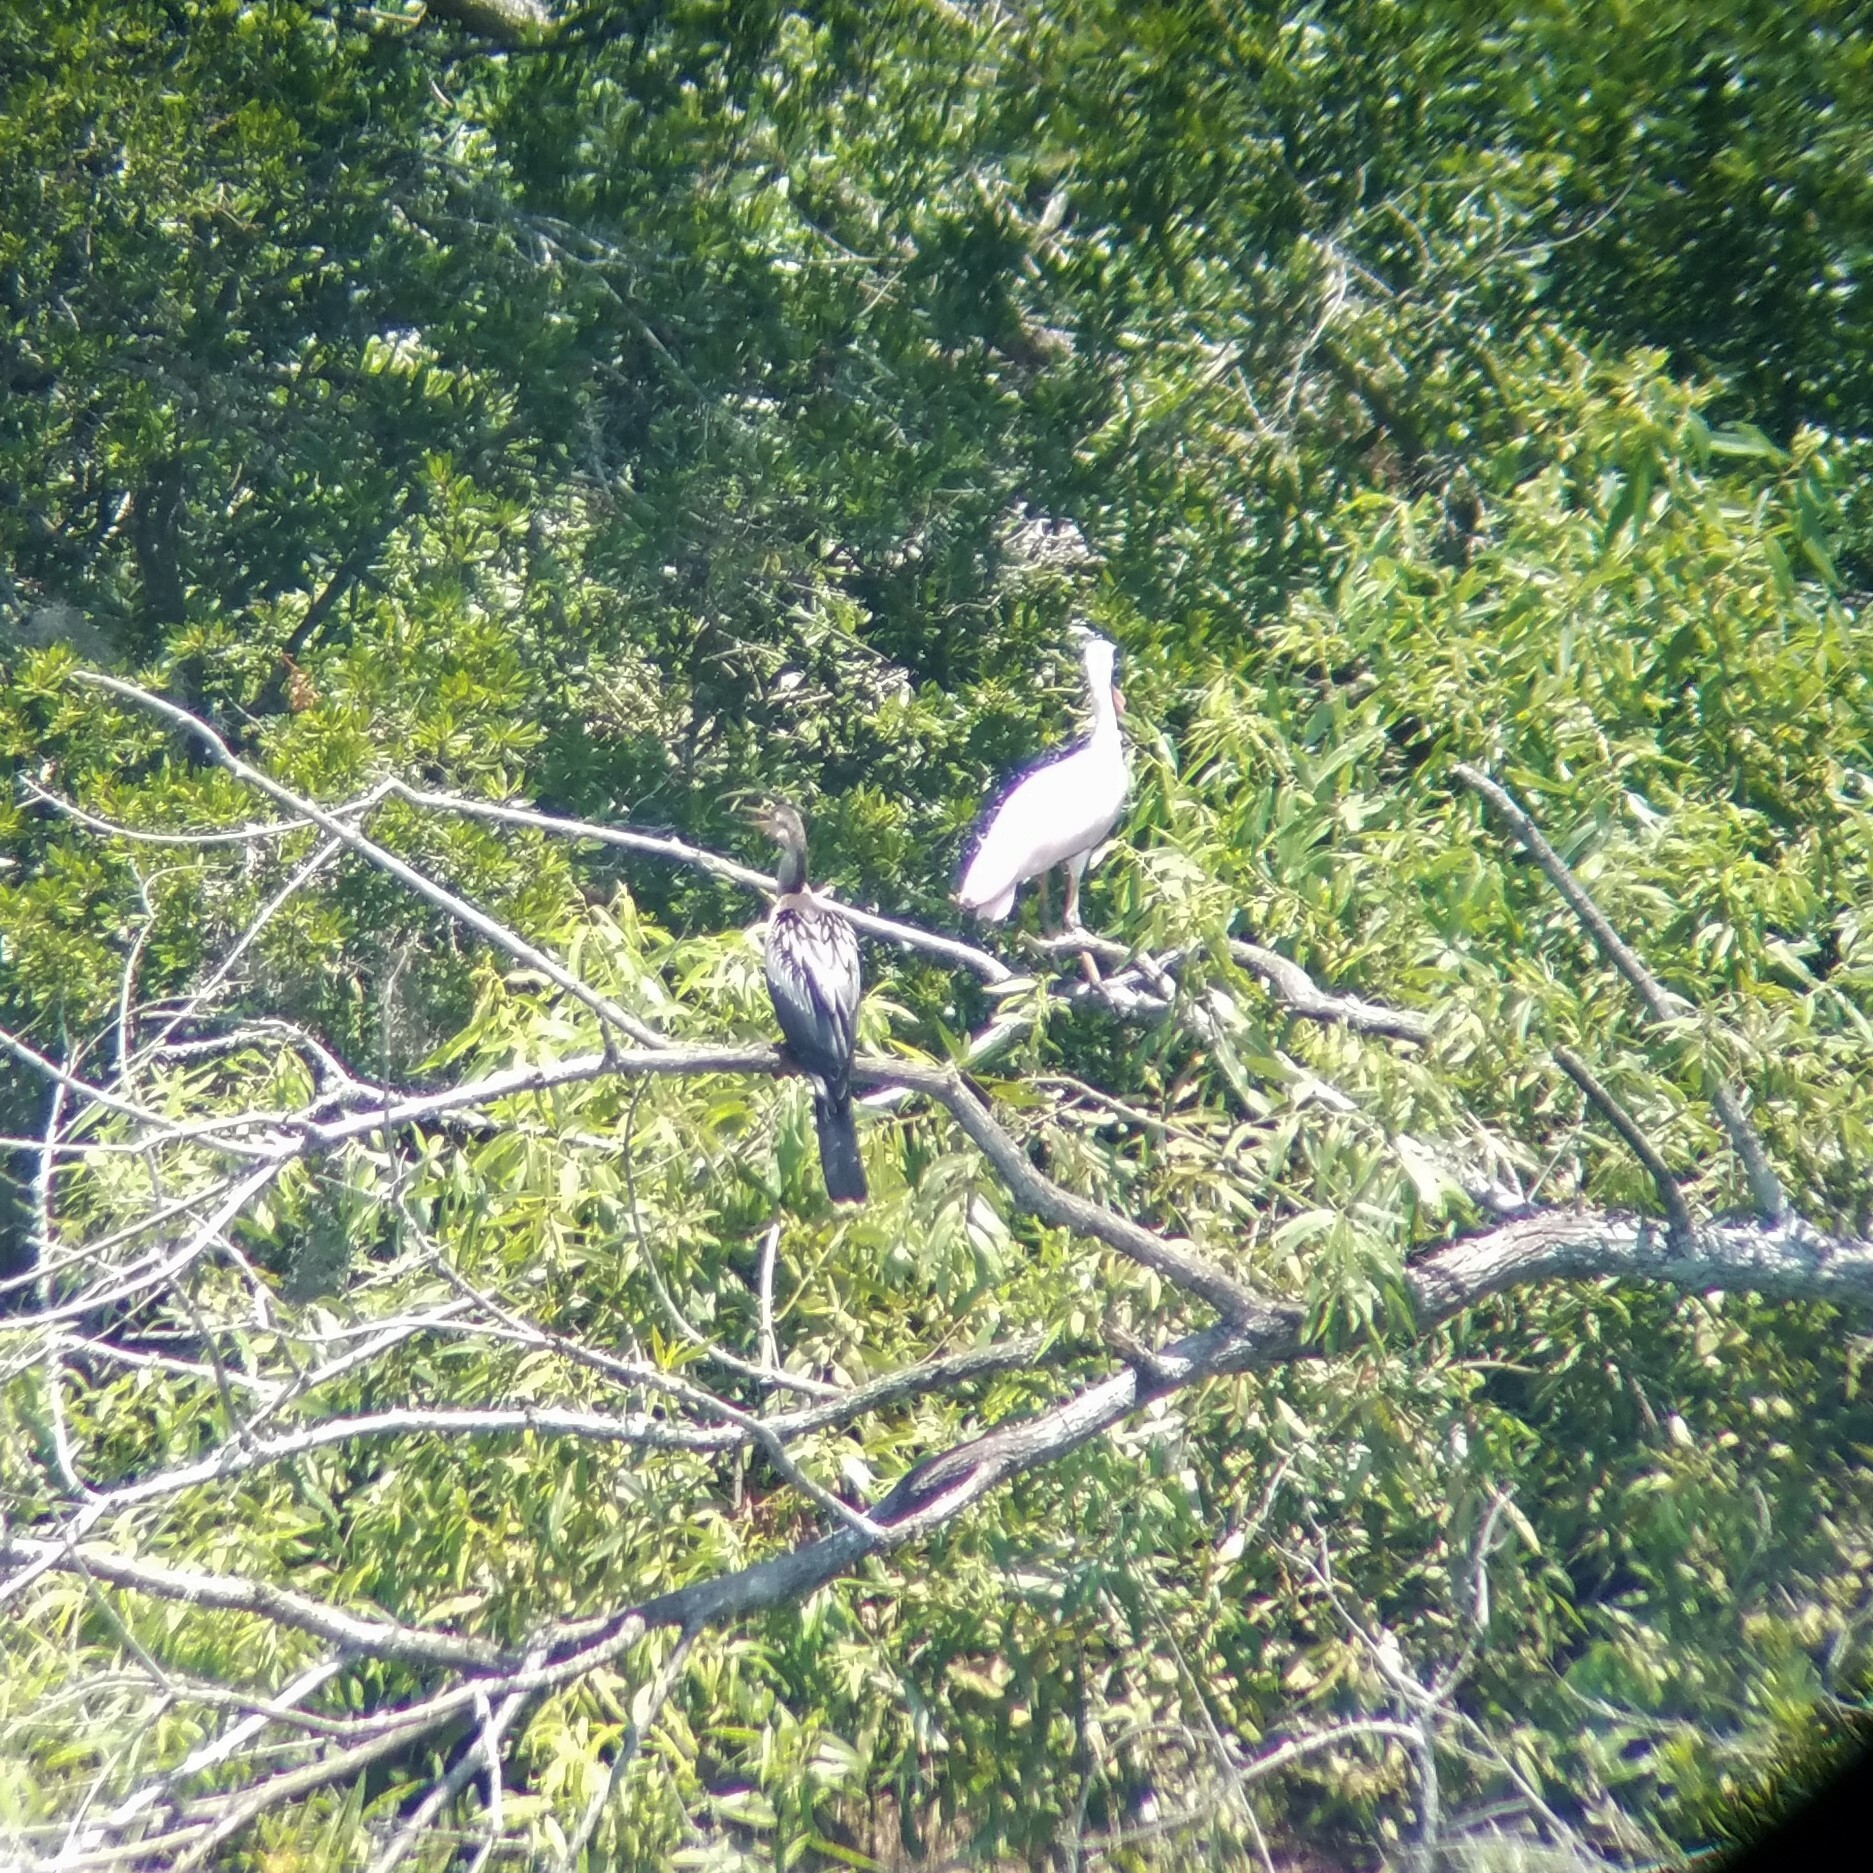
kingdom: Animalia
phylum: Chordata
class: Aves
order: Suliformes
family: Anhingidae
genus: Anhinga
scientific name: Anhinga anhinga
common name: Anhinga
